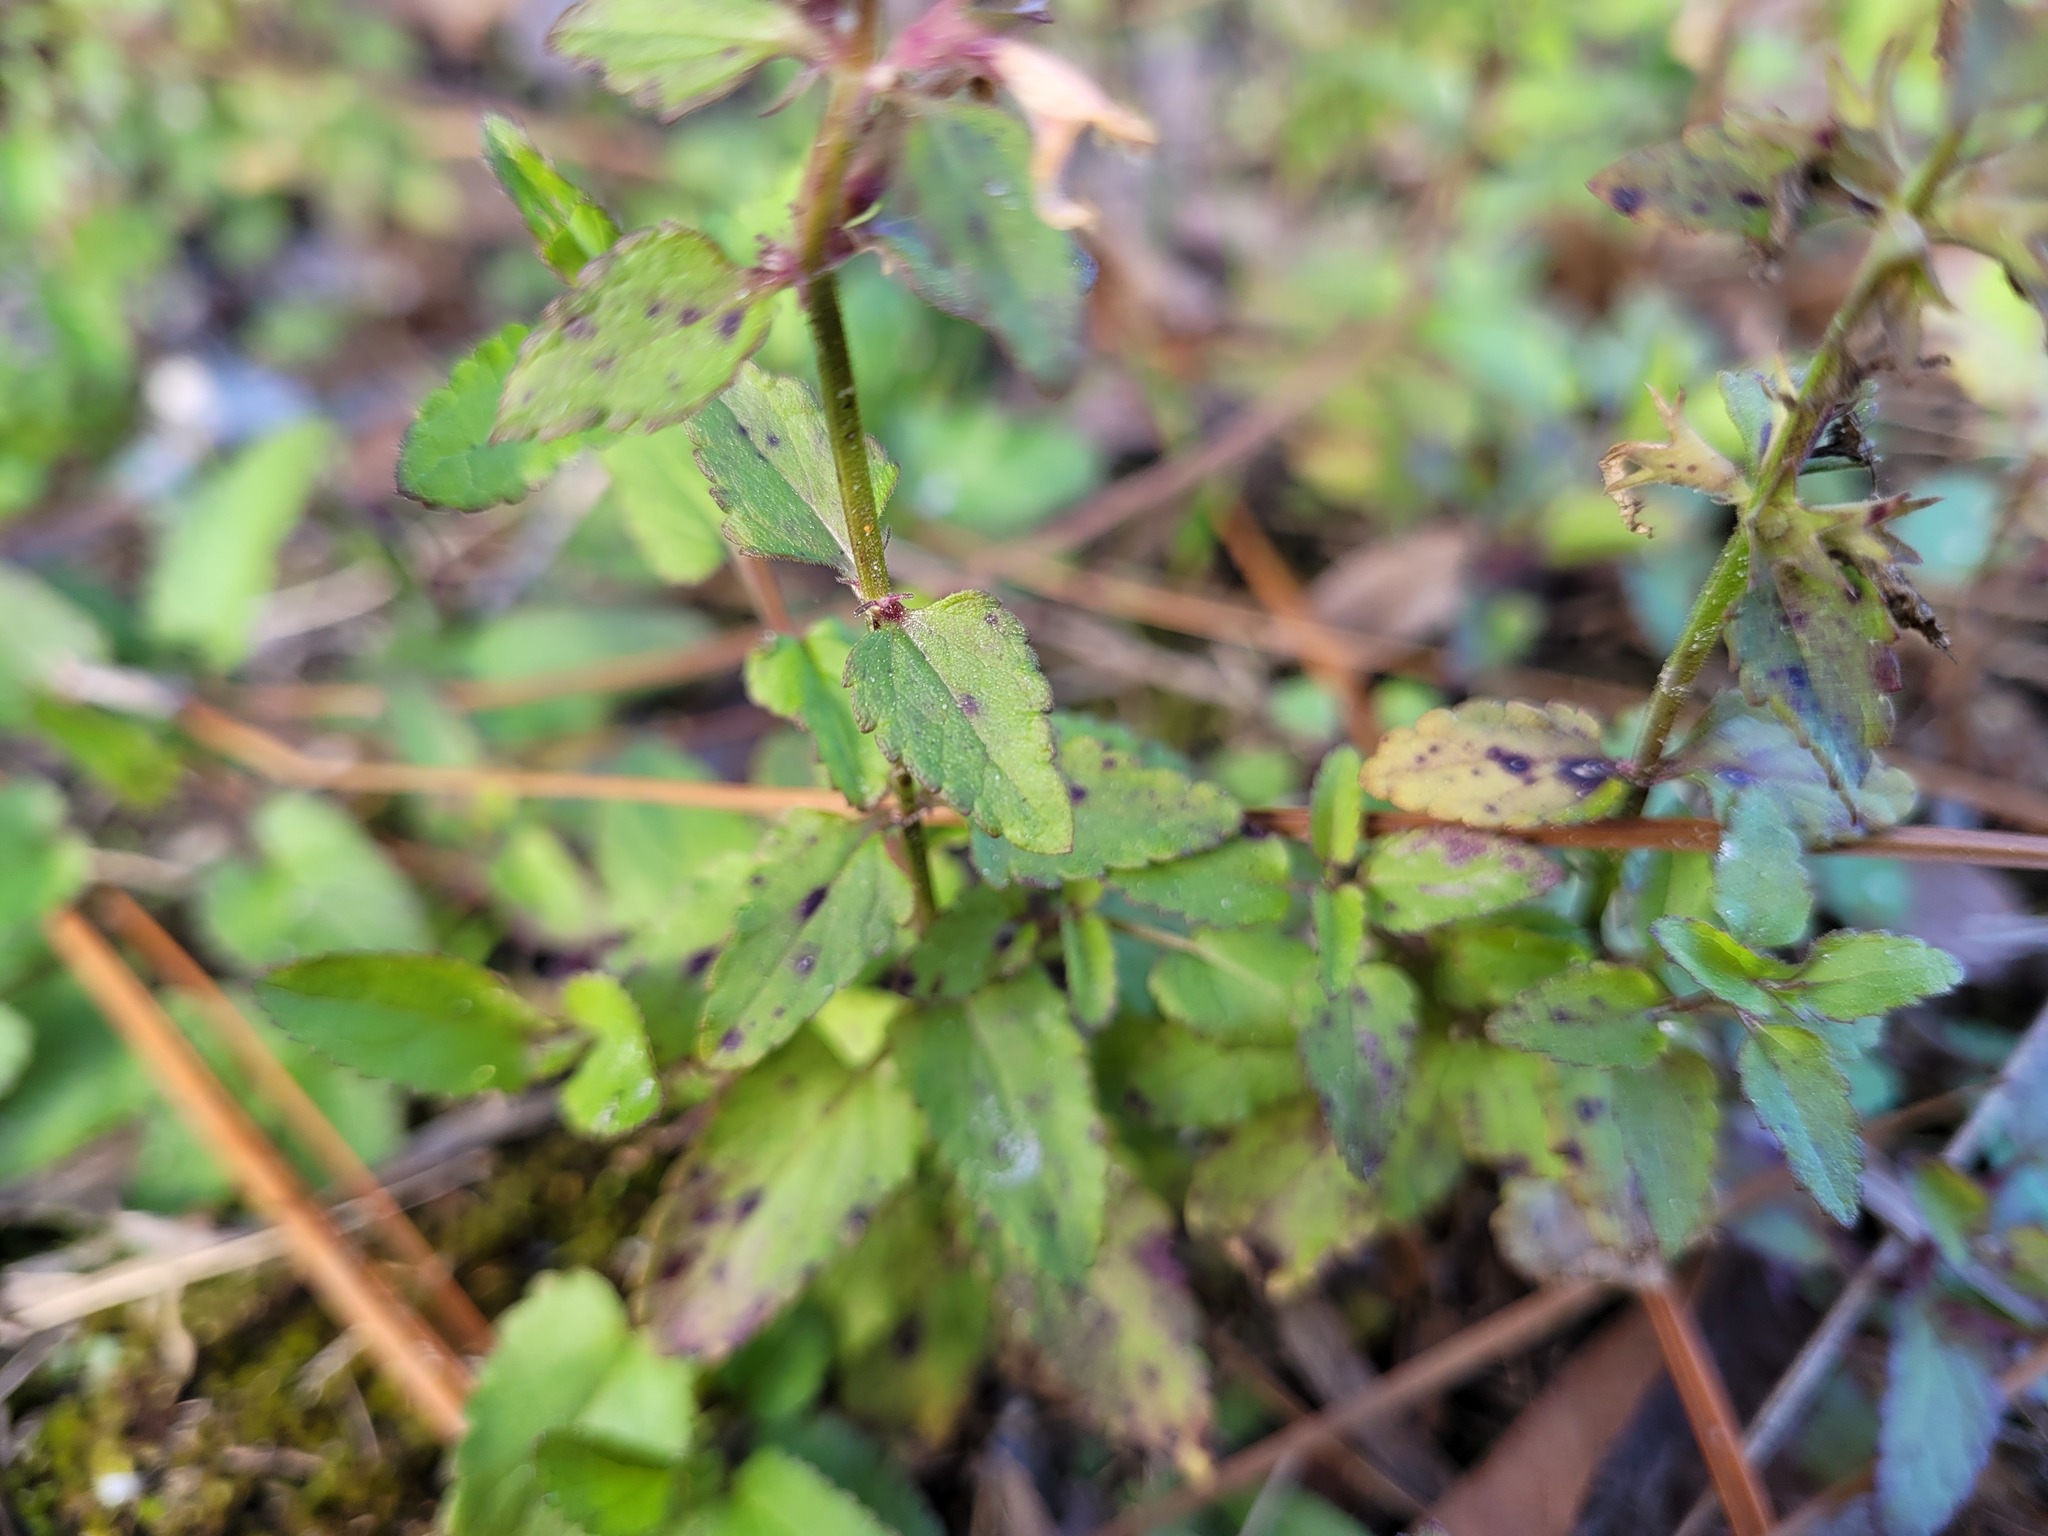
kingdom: Plantae
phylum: Tracheophyta
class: Magnoliopsida
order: Lamiales
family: Lamiaceae
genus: Stachys
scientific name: Stachys floridana
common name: Florida betony
